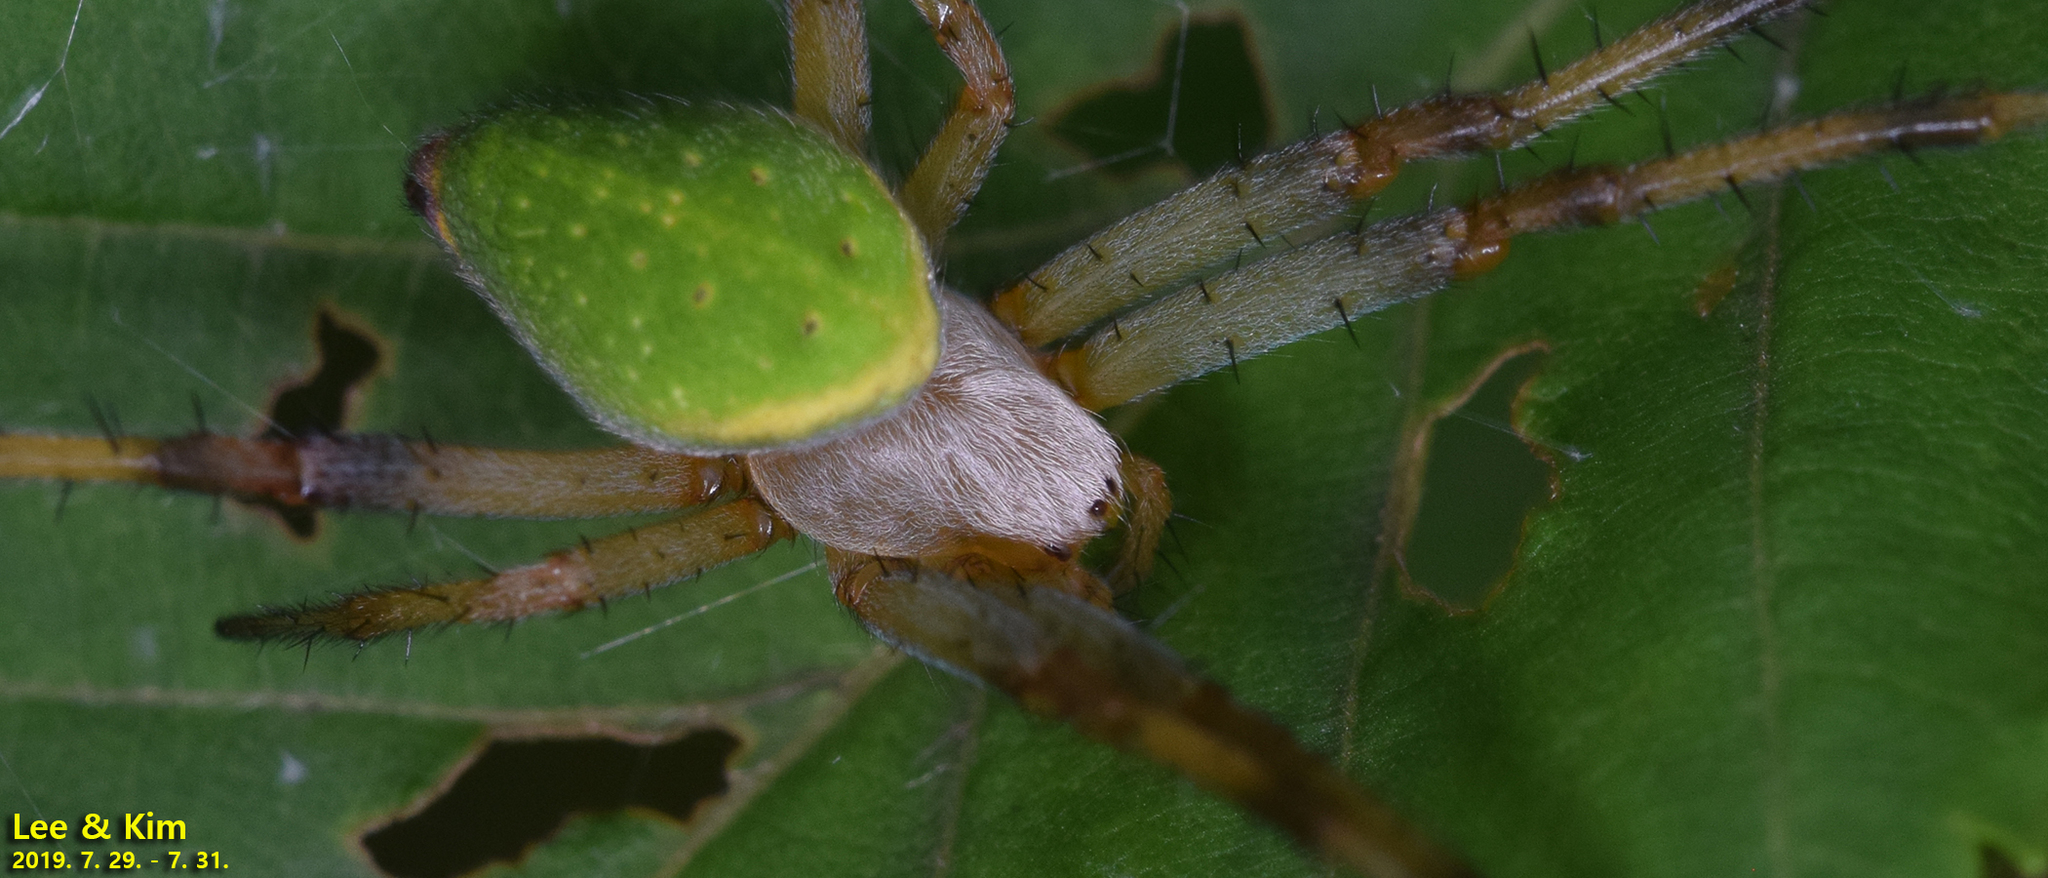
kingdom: Animalia
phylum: Arthropoda
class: Arachnida
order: Araneae
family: Araneidae
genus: Neoscona
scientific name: Neoscona scylloides
